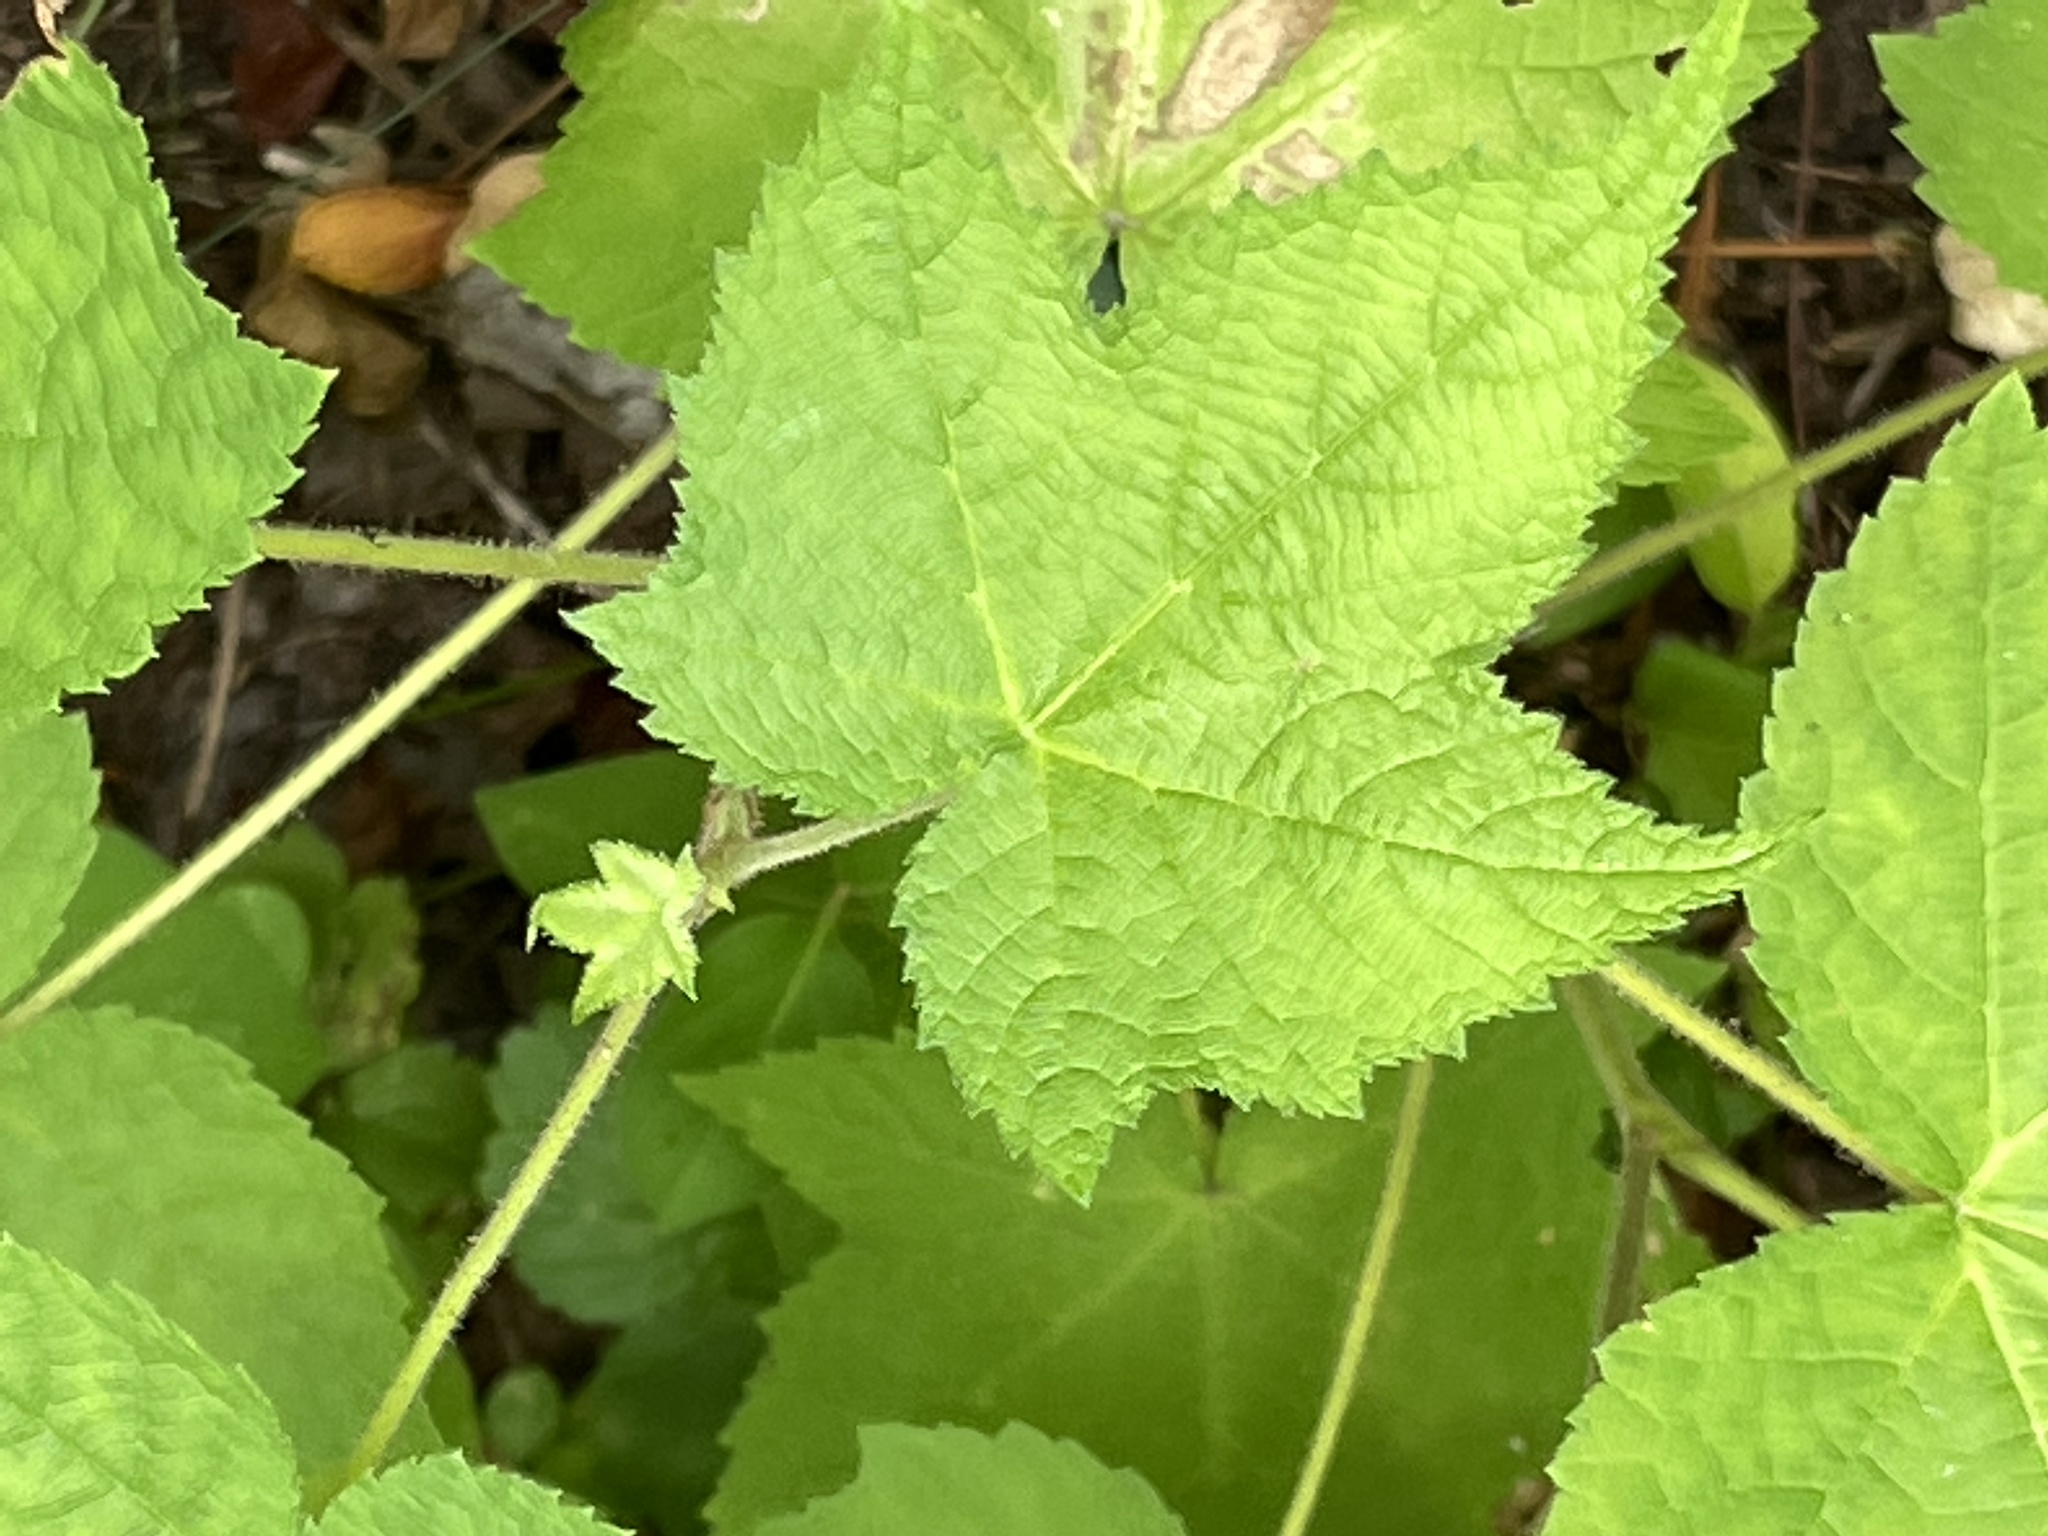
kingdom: Plantae
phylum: Tracheophyta
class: Magnoliopsida
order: Rosales
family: Rosaceae
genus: Rubus
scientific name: Rubus odoratus
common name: Purple-flowered raspberry
